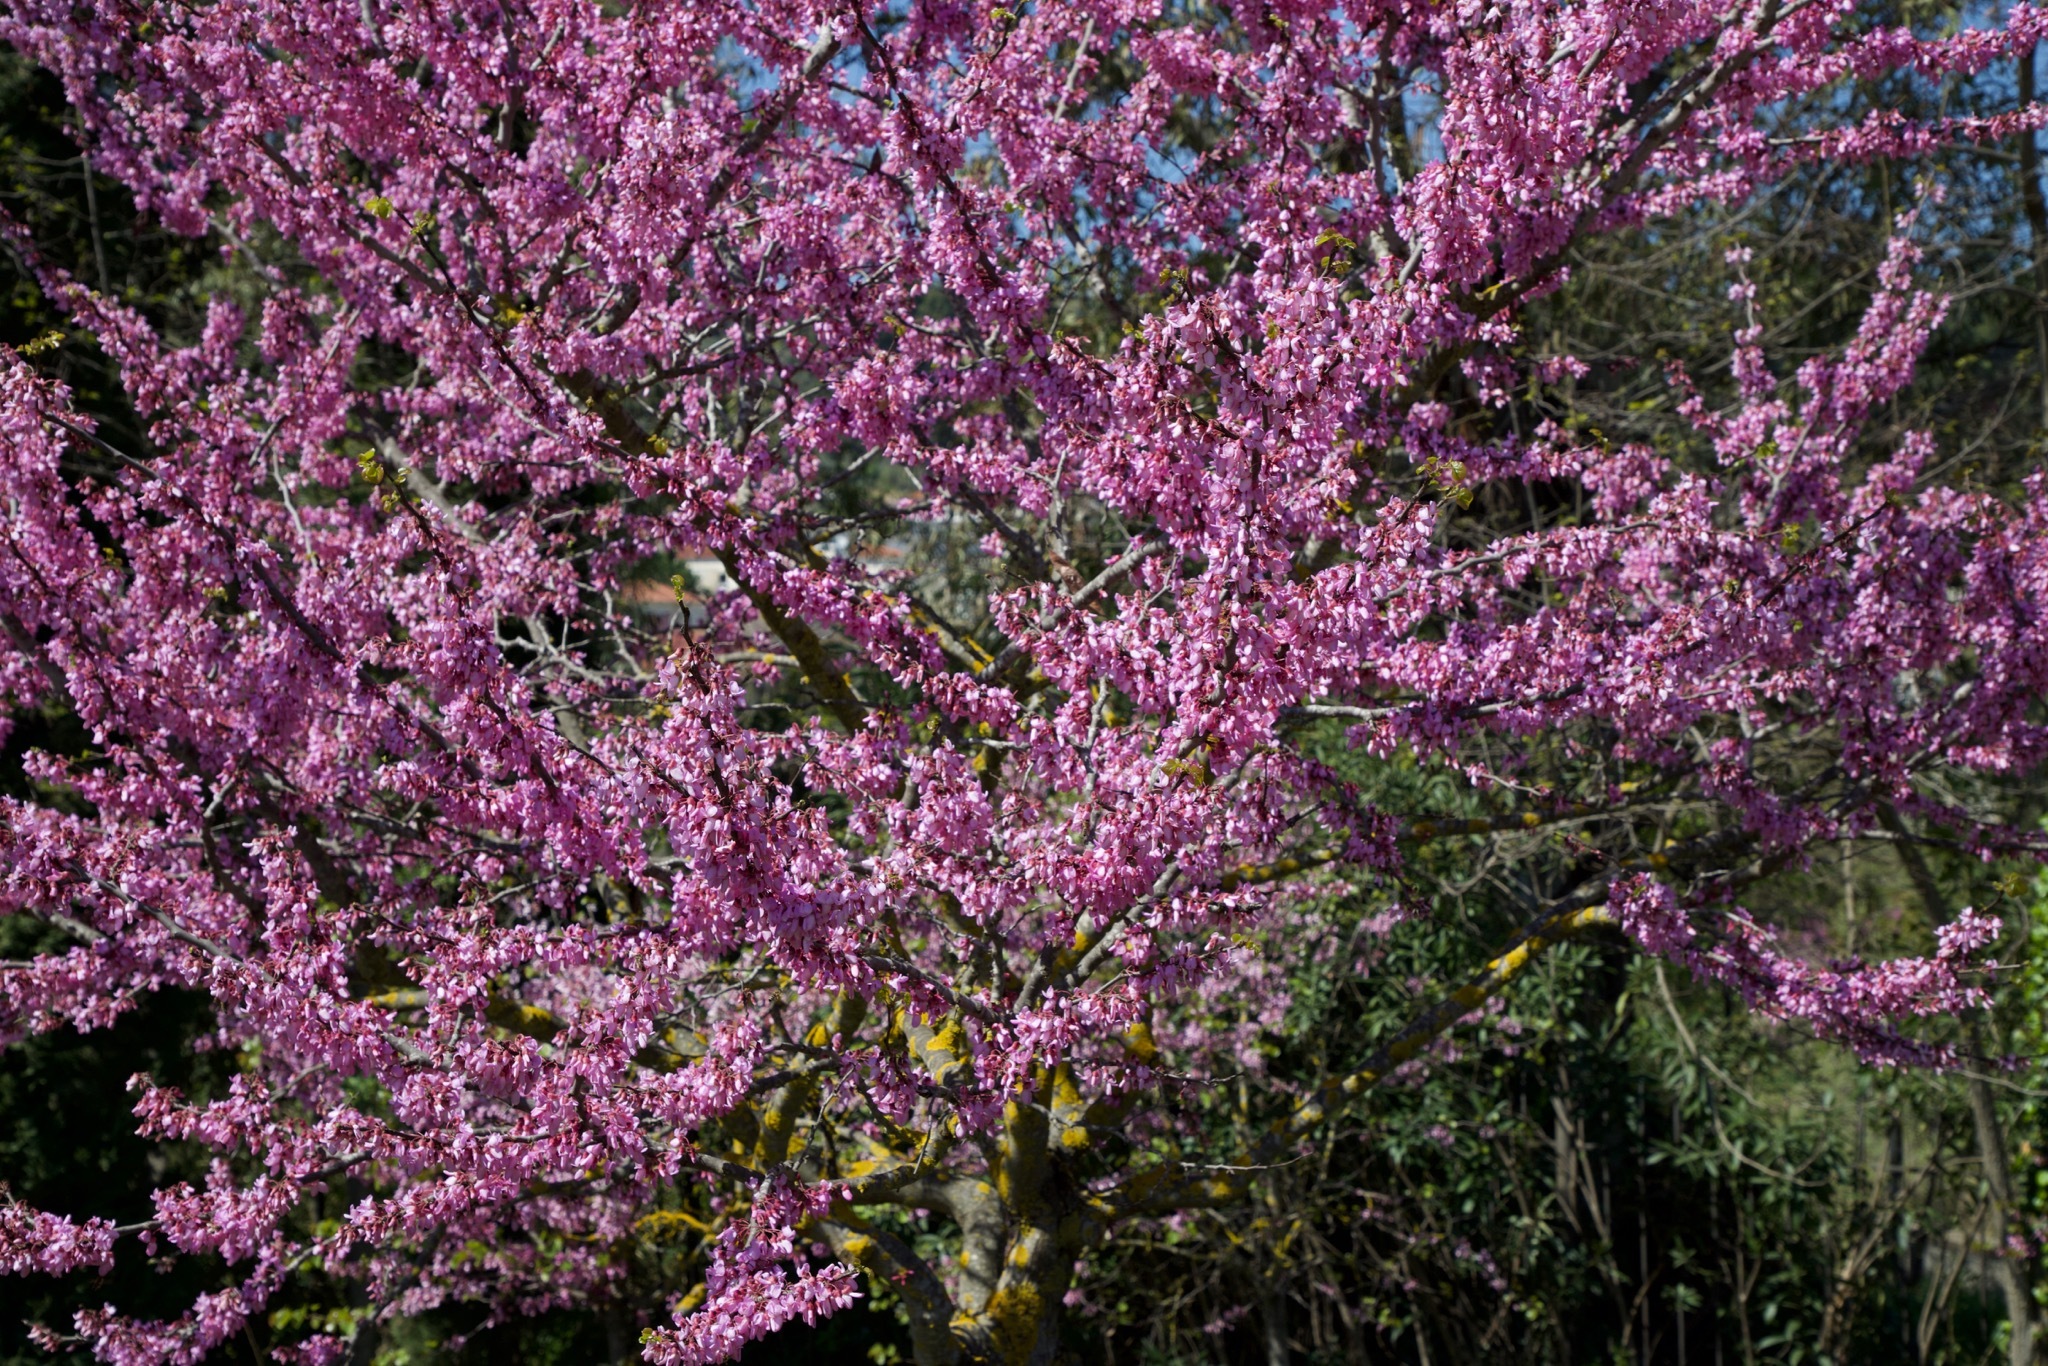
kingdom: Plantae
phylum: Tracheophyta
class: Magnoliopsida
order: Fabales
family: Fabaceae
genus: Cercis
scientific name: Cercis siliquastrum
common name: Judas tree
